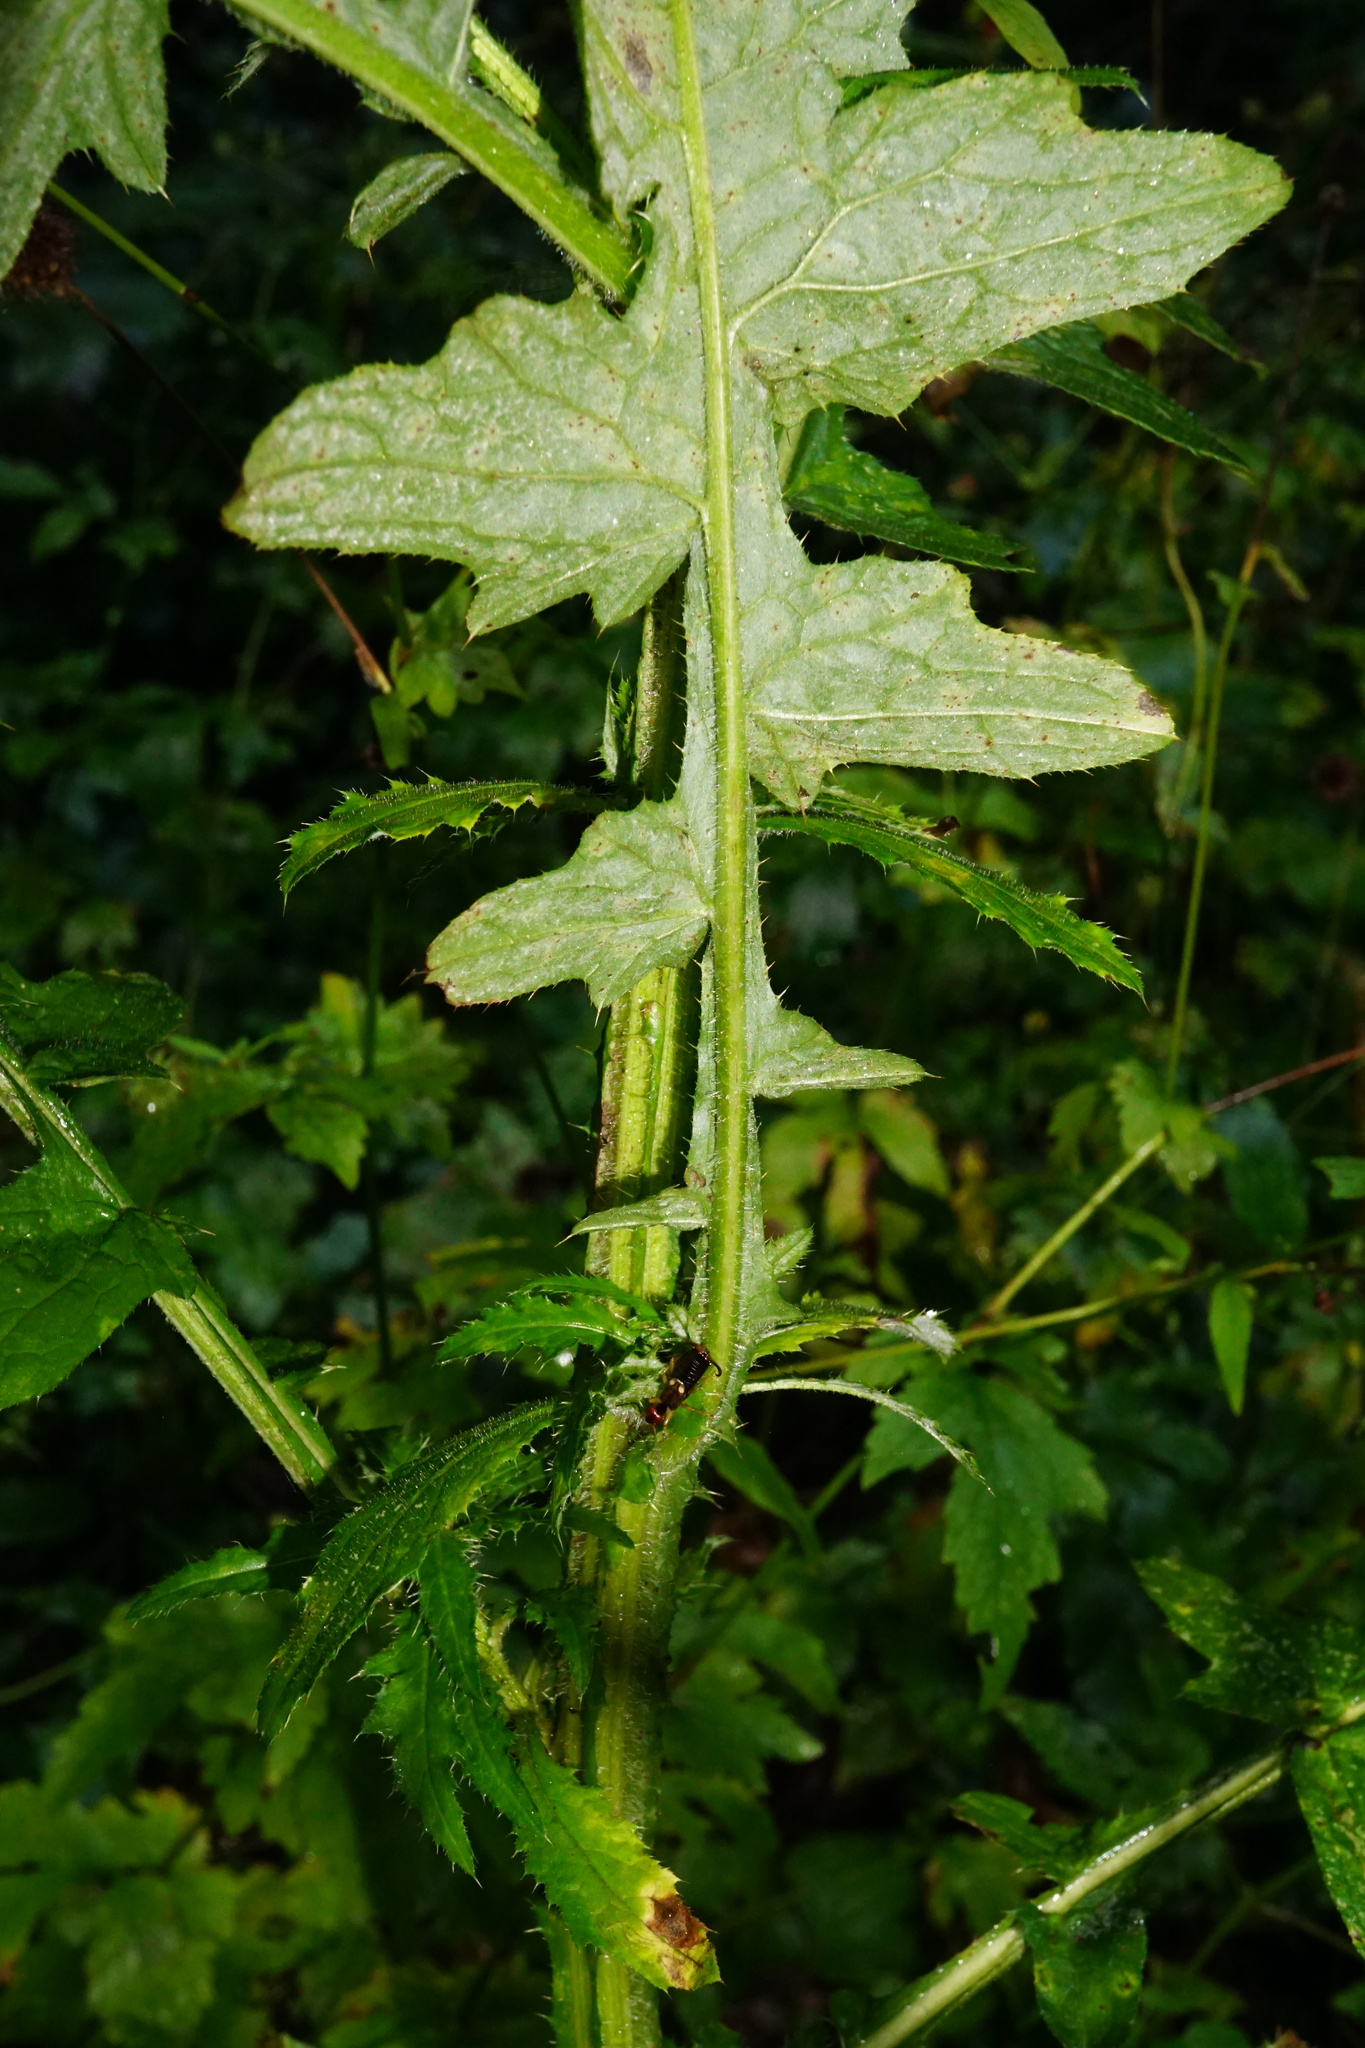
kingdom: Plantae
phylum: Tracheophyta
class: Magnoliopsida
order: Asterales
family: Asteraceae
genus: Carduus
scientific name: Carduus crispus
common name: Welted thistle
